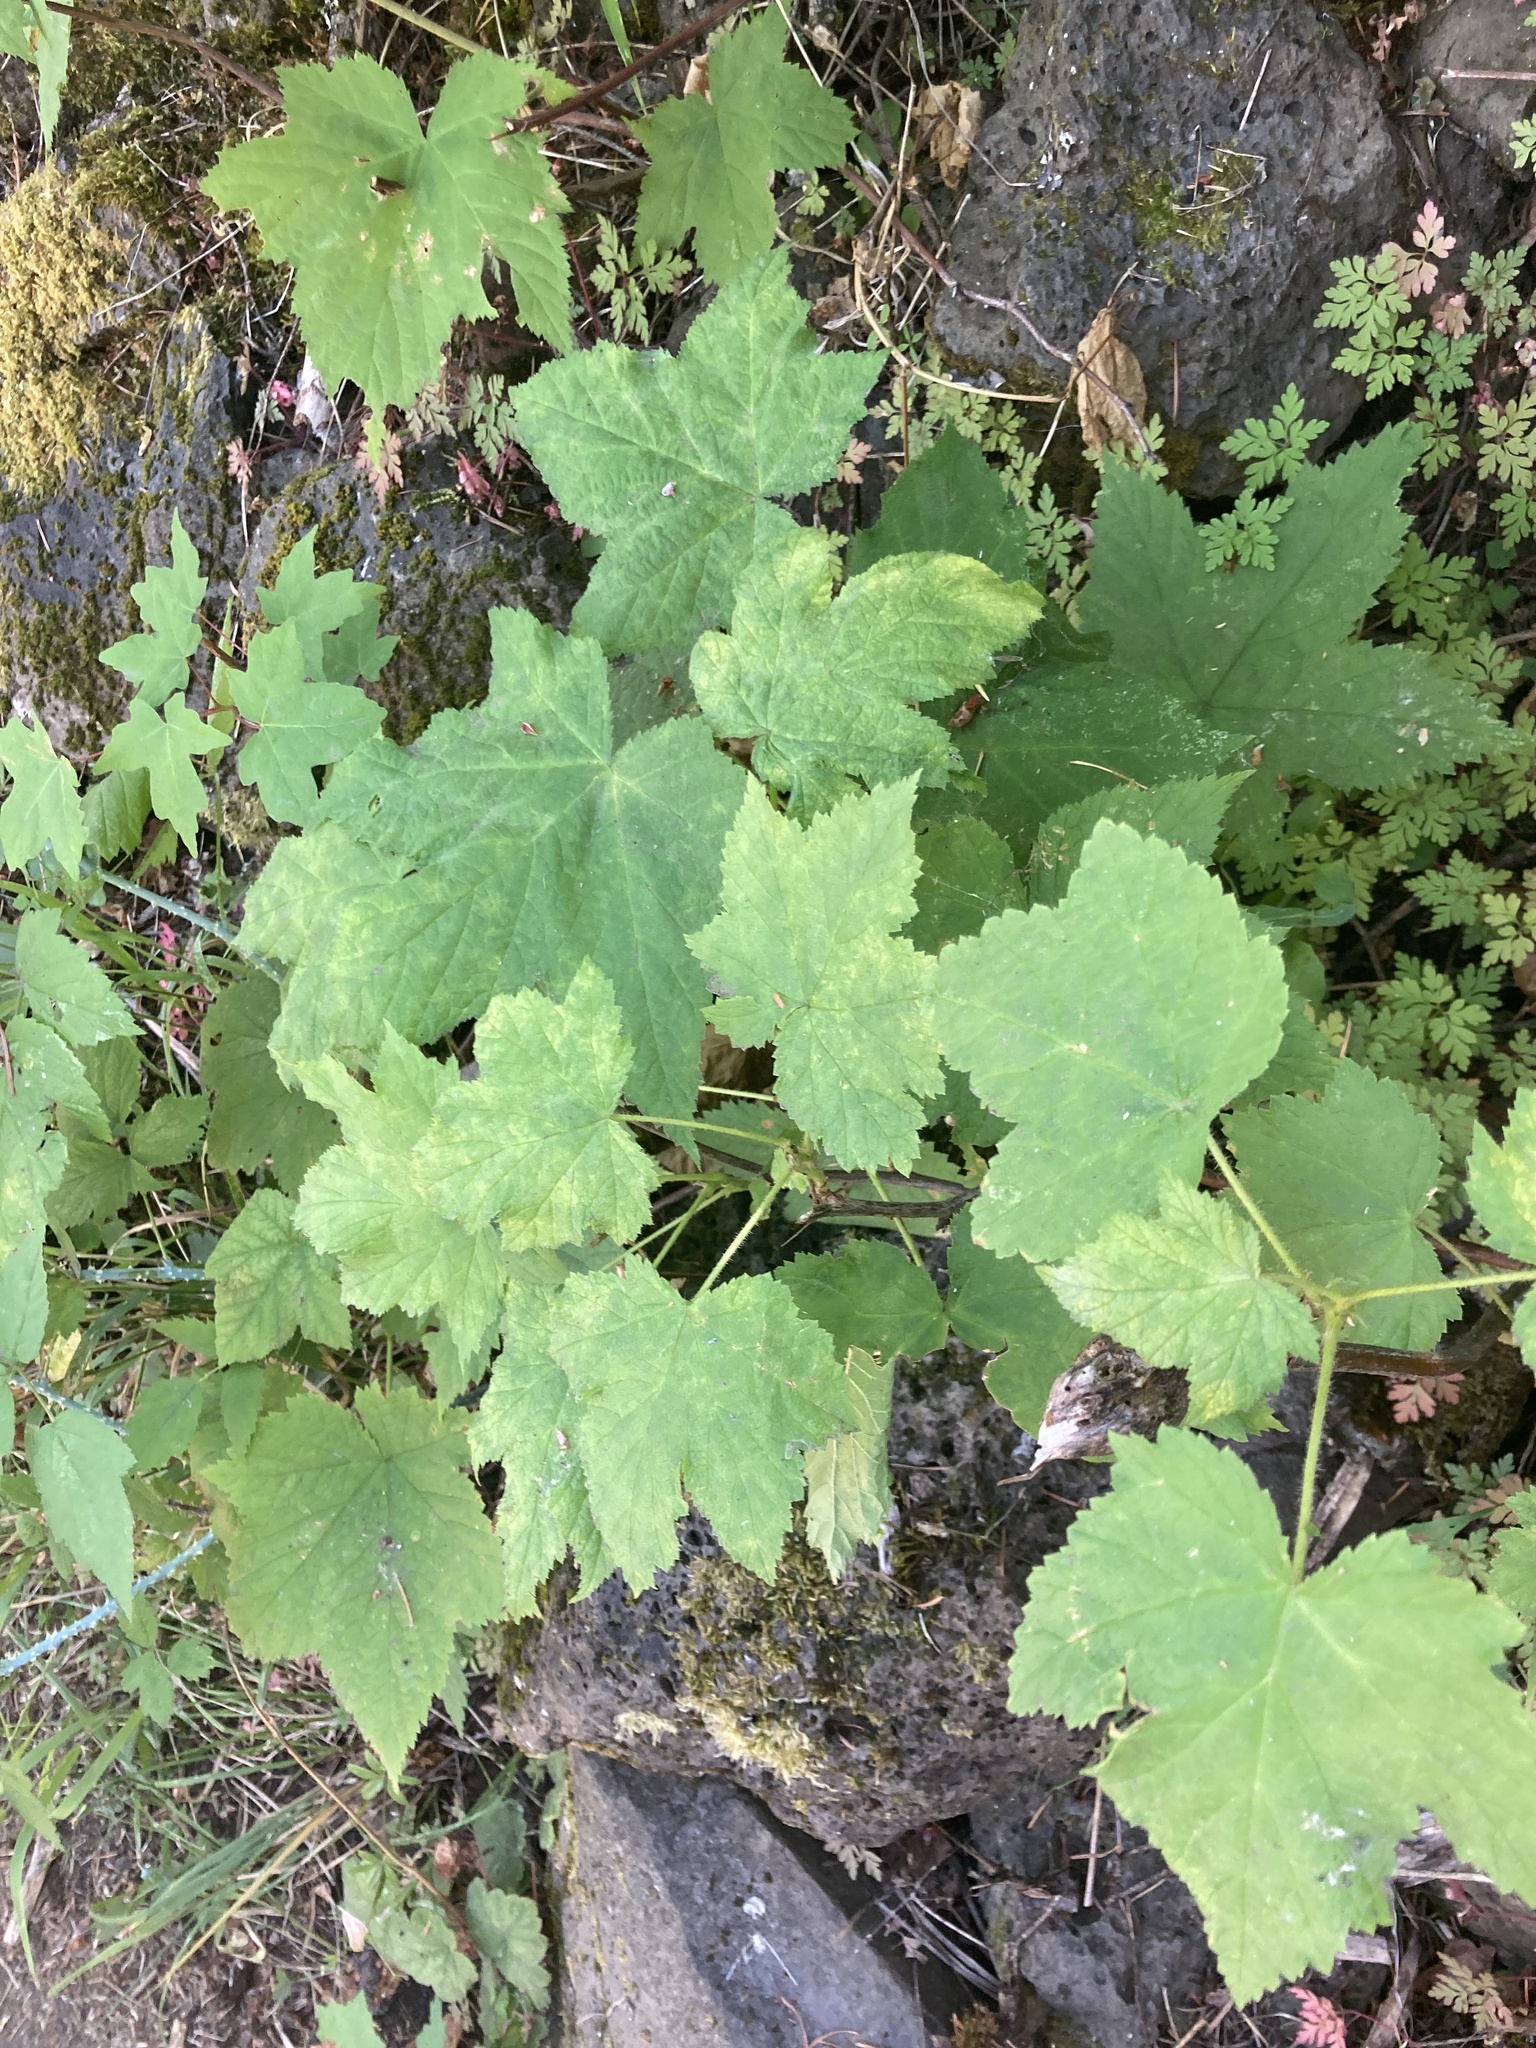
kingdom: Plantae
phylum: Tracheophyta
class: Magnoliopsida
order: Rosales
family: Rosaceae
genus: Rubus
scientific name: Rubus parviflorus
